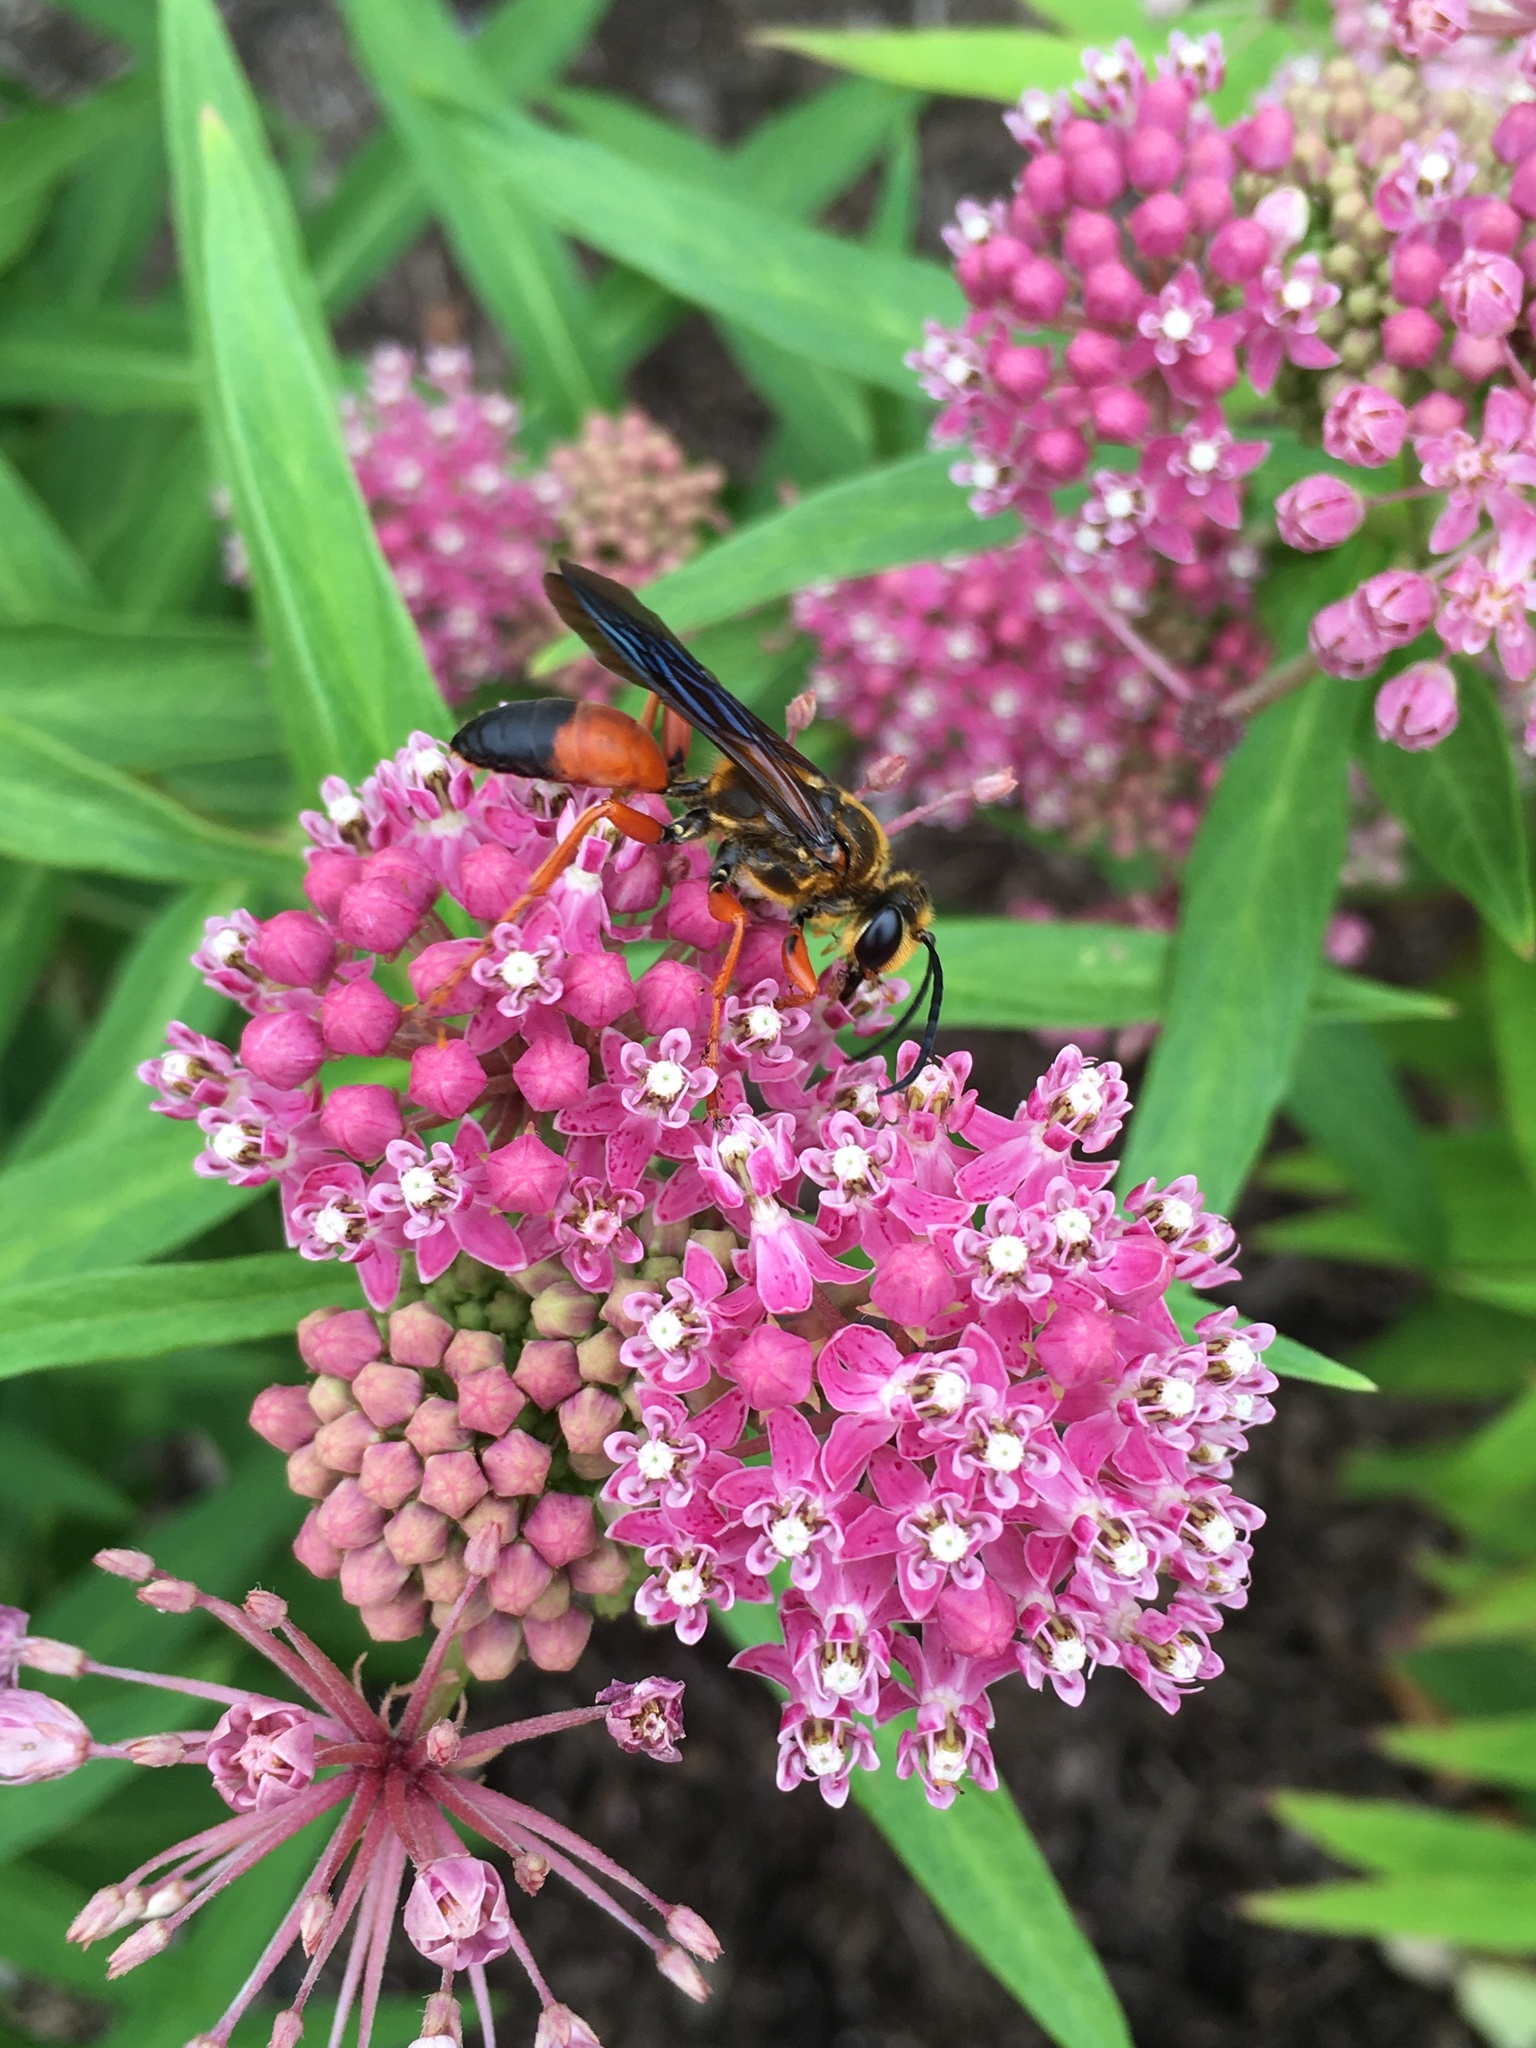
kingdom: Animalia
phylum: Arthropoda
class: Insecta
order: Hymenoptera
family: Sphecidae
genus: Sphex
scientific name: Sphex ichneumoneus
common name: Great golden digger wasp
